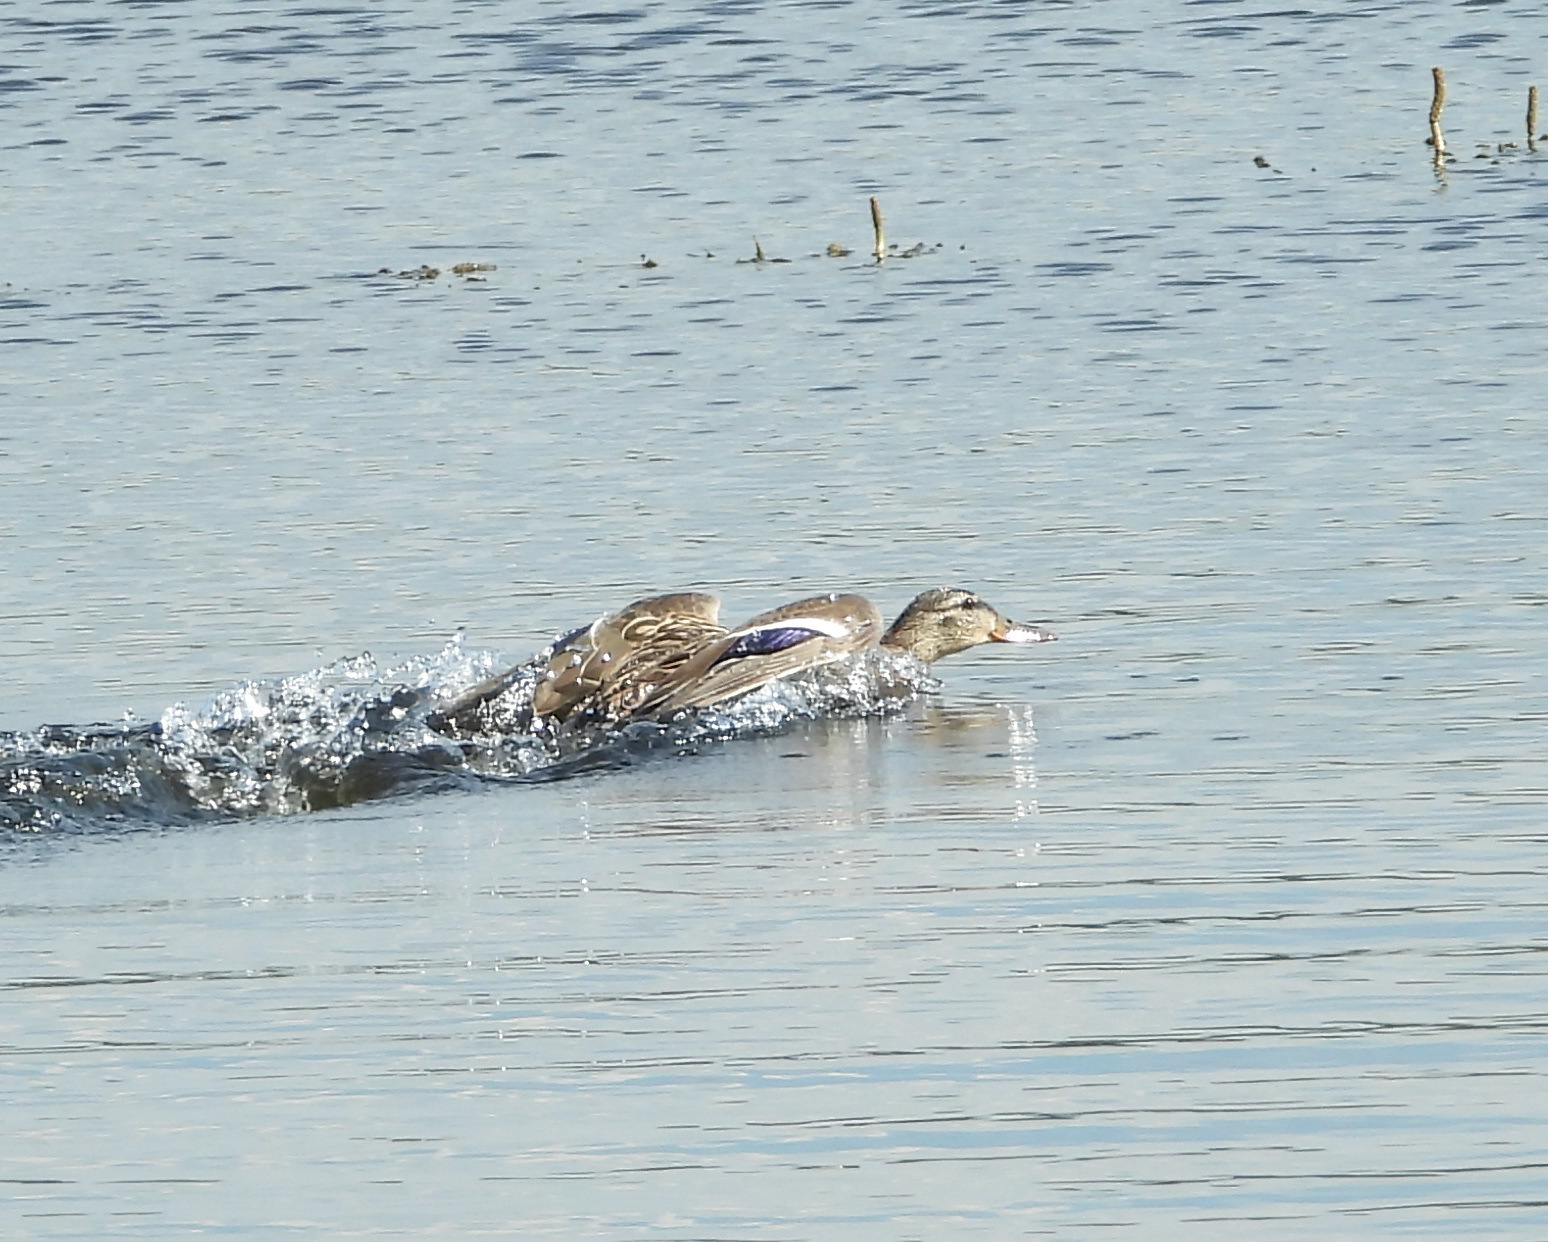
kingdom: Animalia
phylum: Chordata
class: Aves
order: Anseriformes
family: Anatidae
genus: Anas
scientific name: Anas platyrhynchos
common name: Mallard
